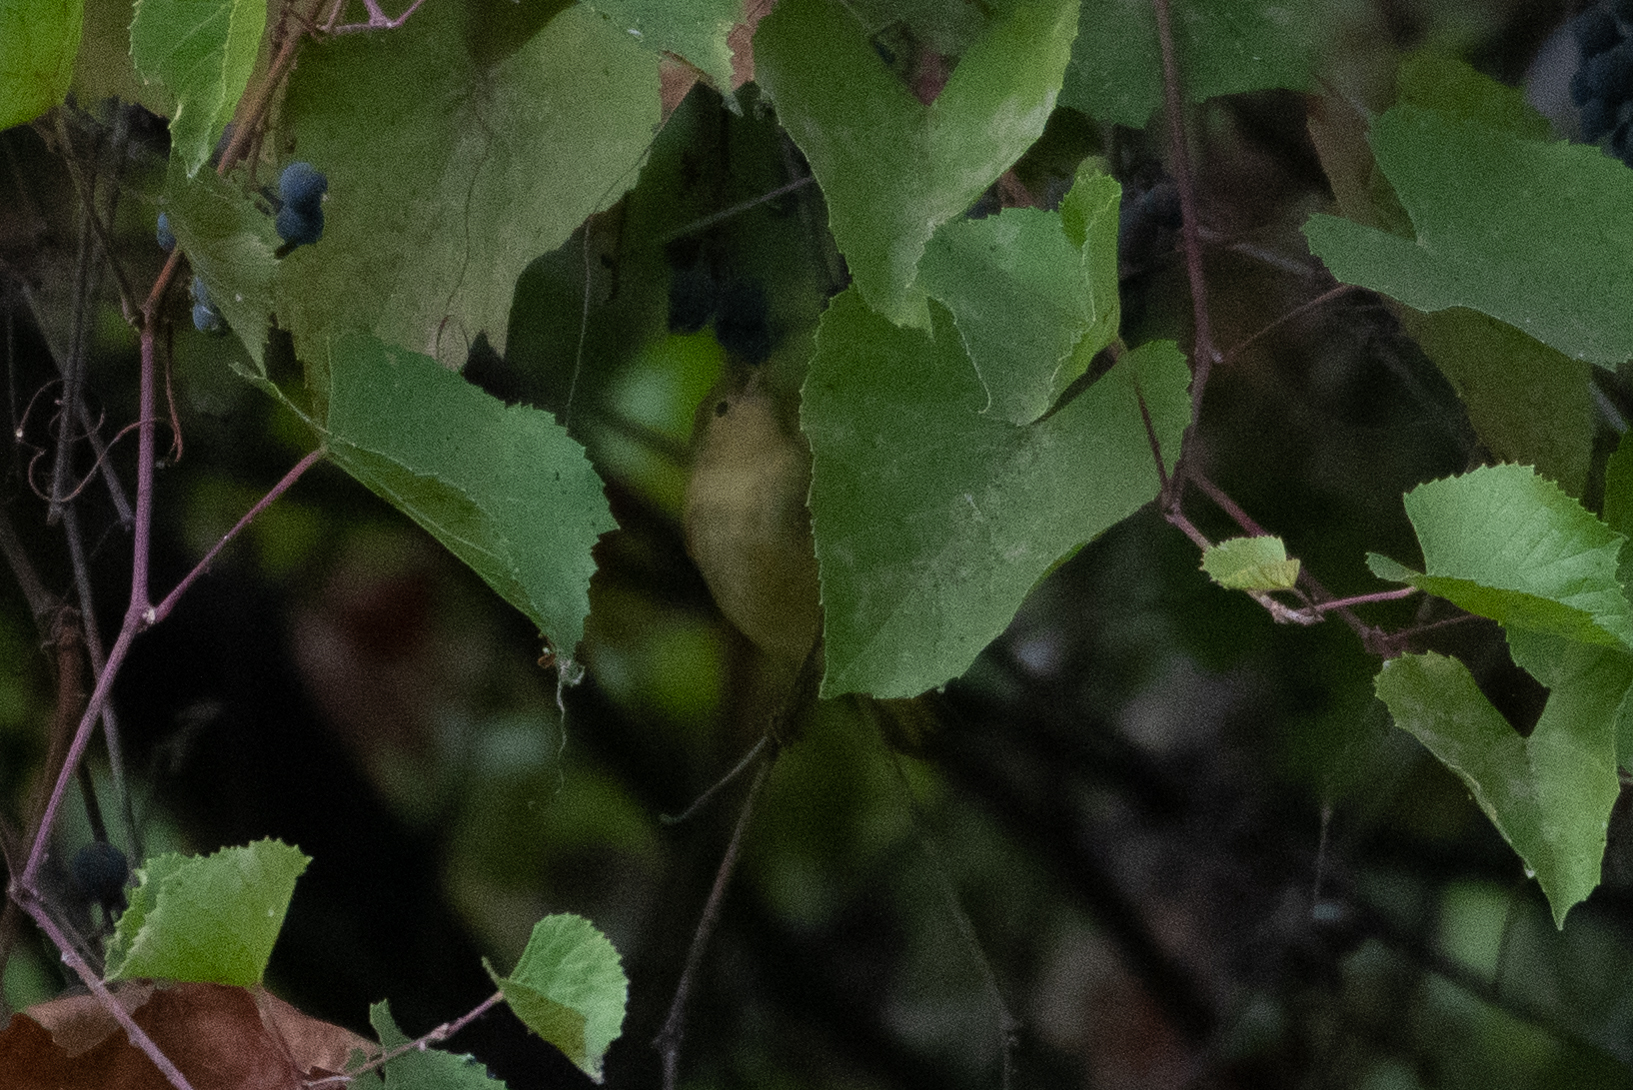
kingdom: Animalia
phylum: Chordata
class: Aves
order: Passeriformes
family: Parulidae
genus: Setophaga
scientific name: Setophaga petechia
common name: Yellow warbler
